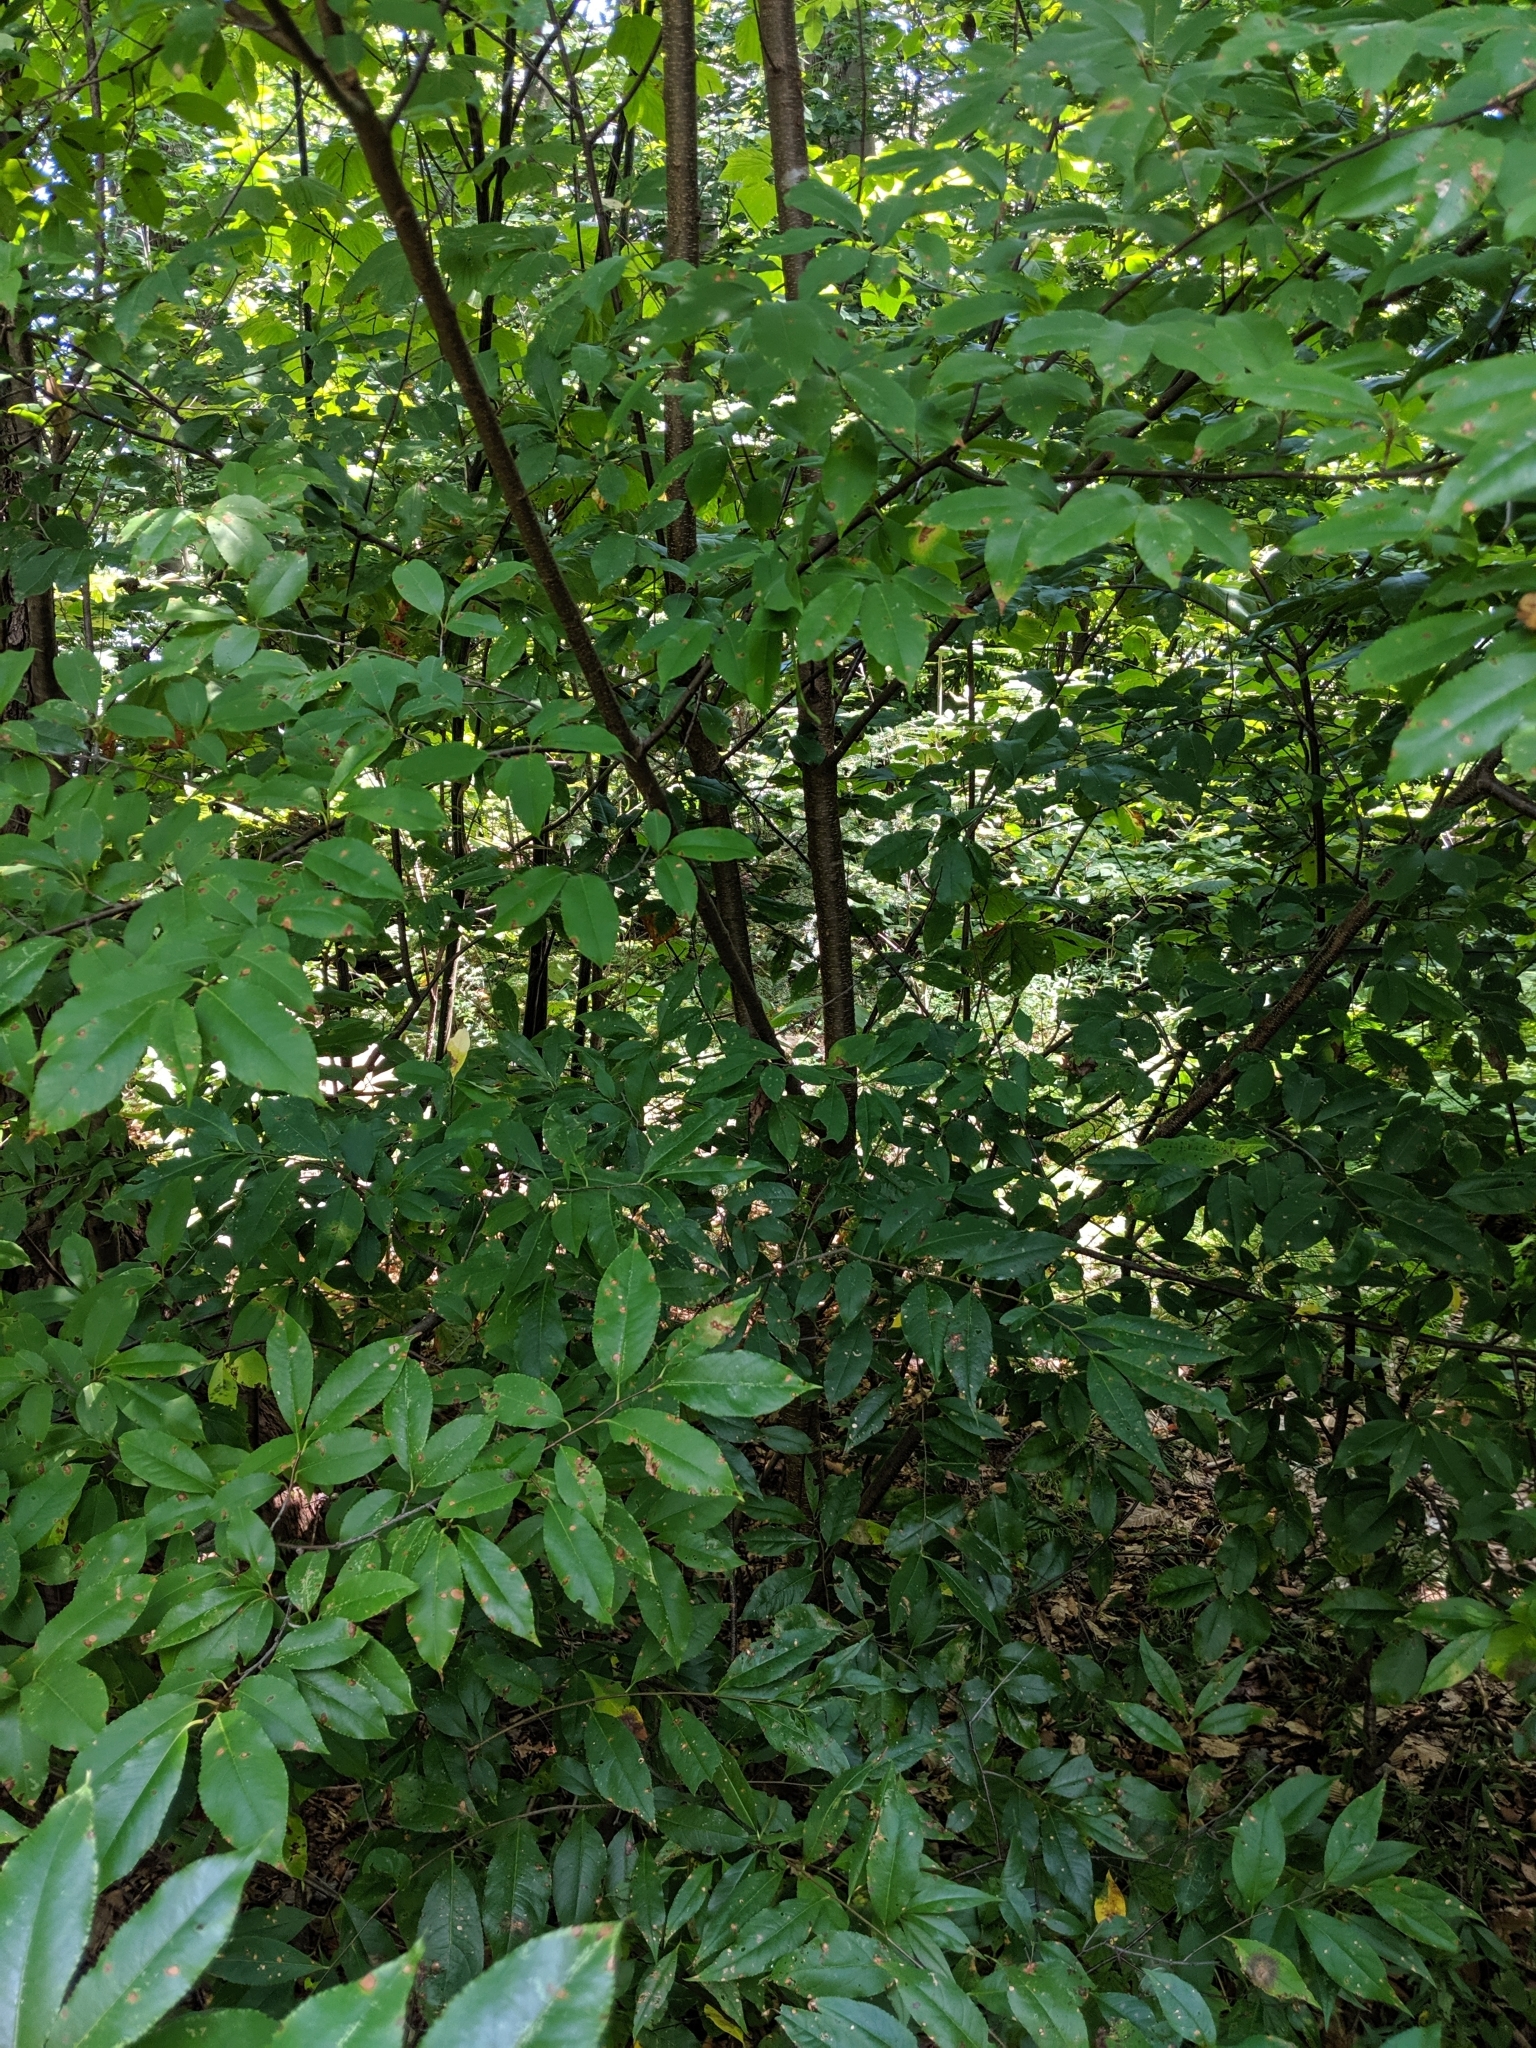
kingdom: Plantae
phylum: Tracheophyta
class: Magnoliopsida
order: Rosales
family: Rosaceae
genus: Prunus
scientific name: Prunus serotina
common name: Black cherry
